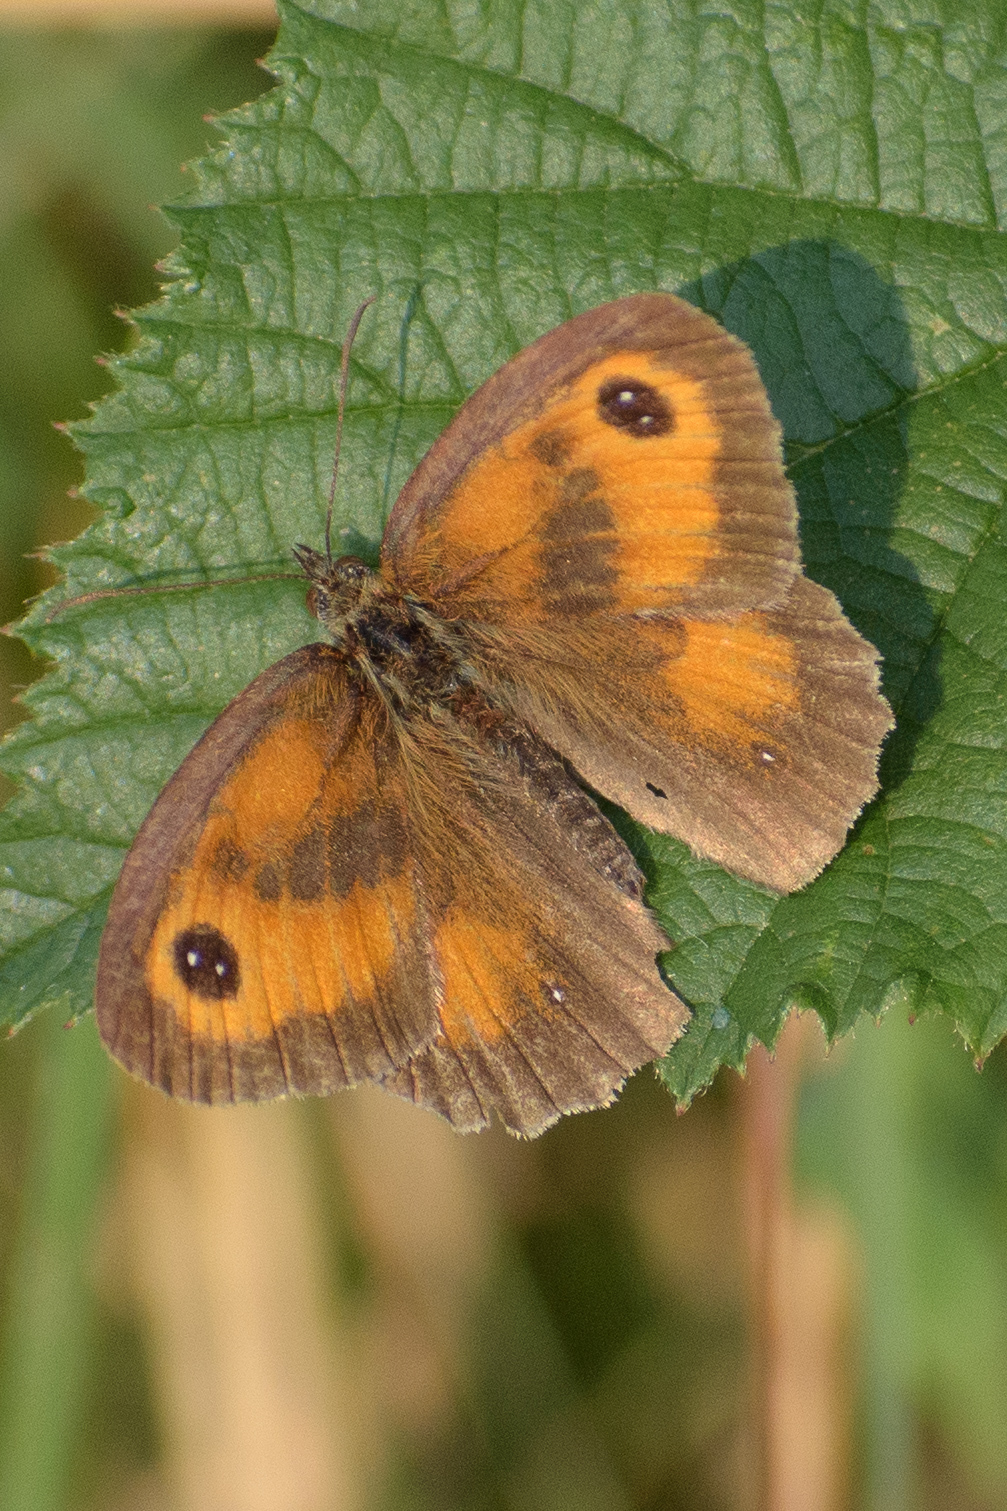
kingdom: Animalia
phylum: Arthropoda
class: Insecta
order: Lepidoptera
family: Nymphalidae
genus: Pyronia
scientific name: Pyronia tithonus
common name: Gatekeeper
